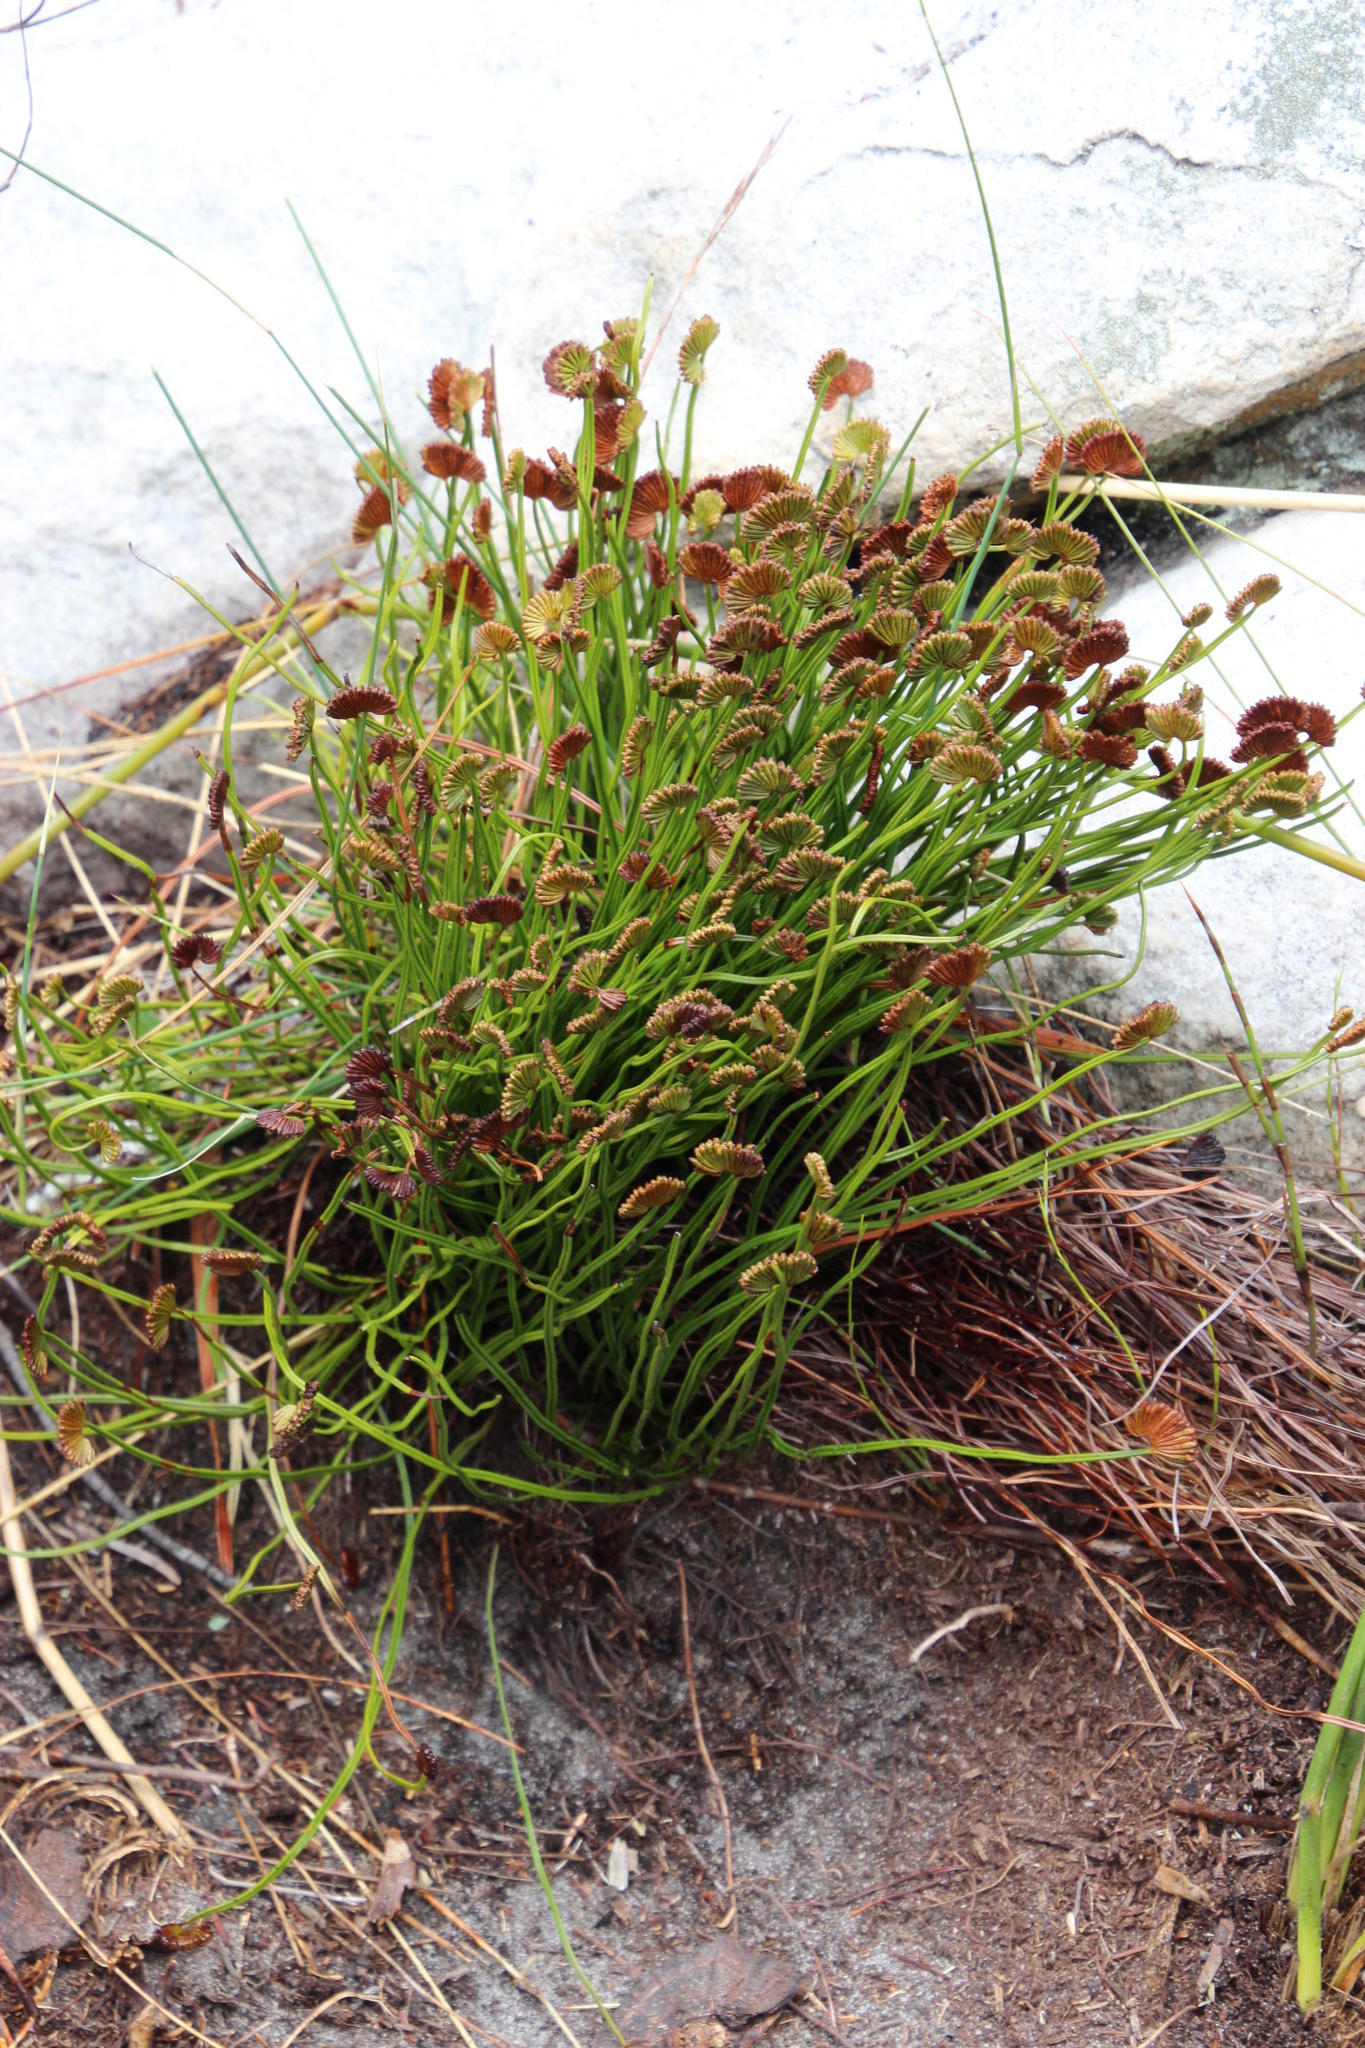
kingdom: Plantae
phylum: Tracheophyta
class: Polypodiopsida
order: Schizaeales
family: Schizaeaceae
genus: Schizaea
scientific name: Schizaea pectinata
